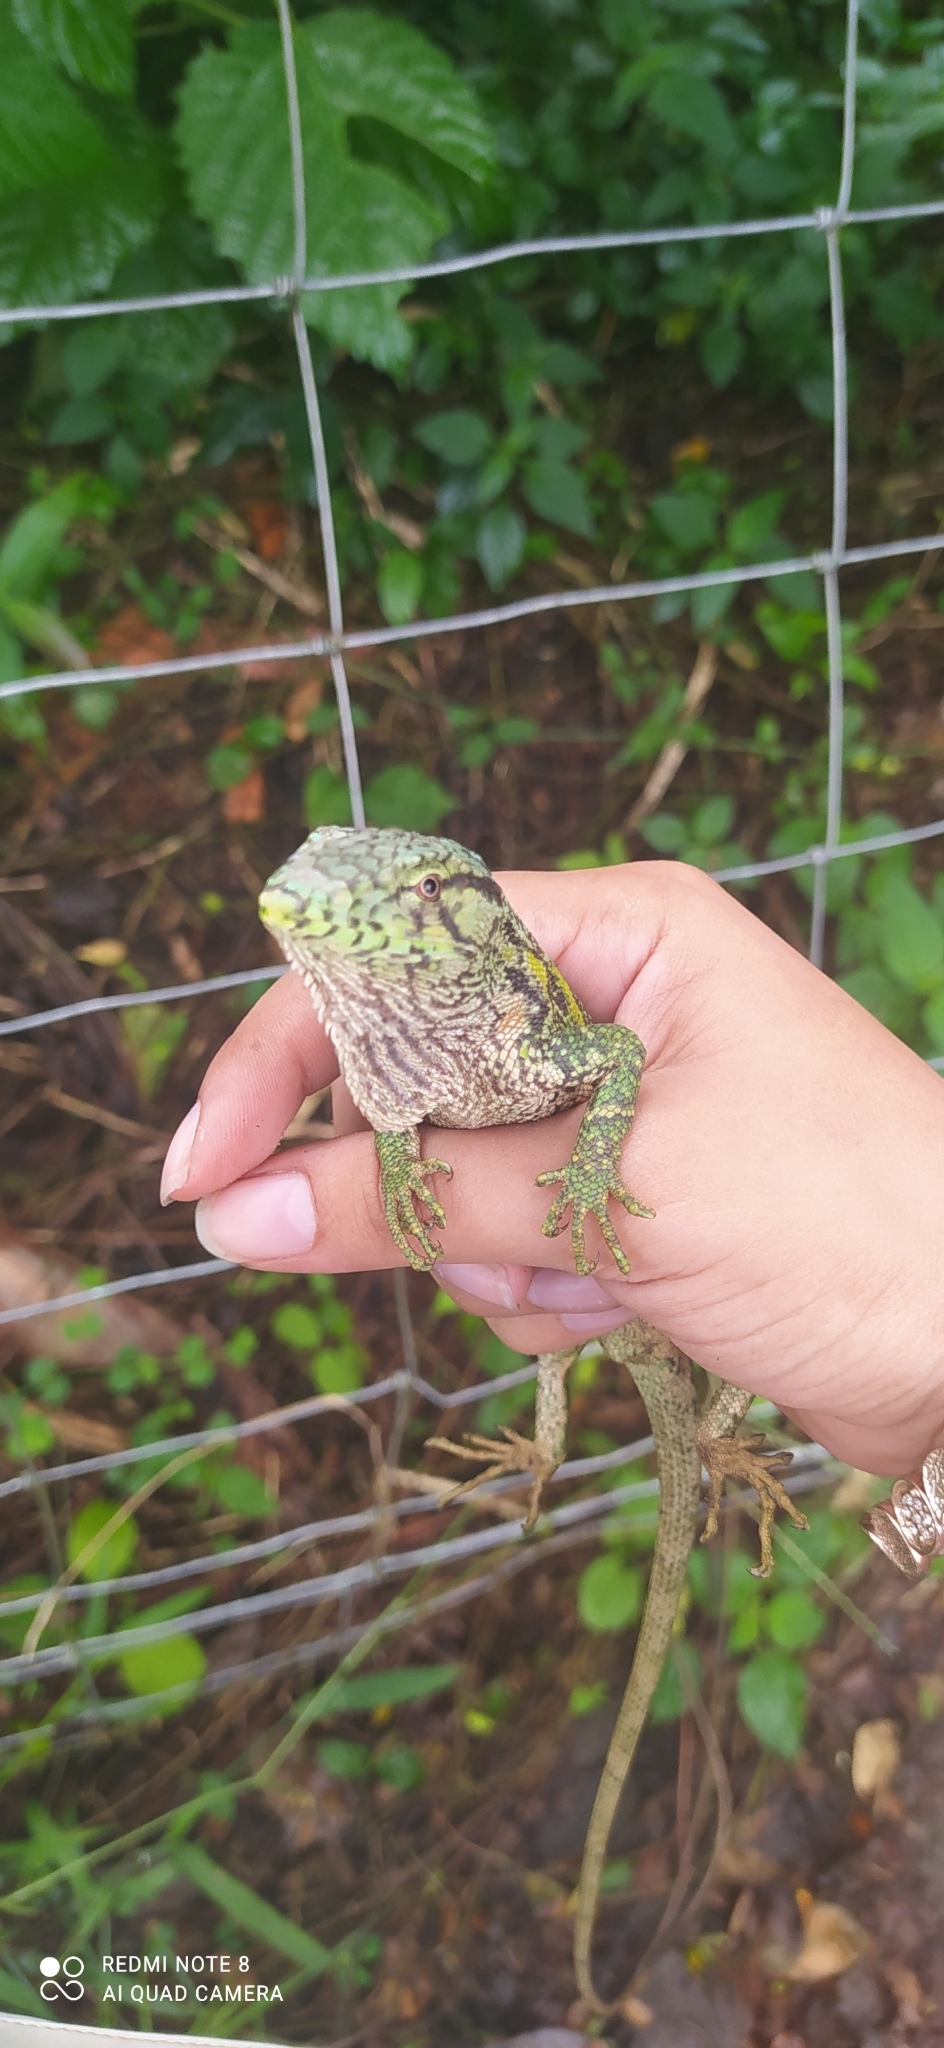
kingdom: Animalia
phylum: Chordata
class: Squamata
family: Polychrotidae
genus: Polychrus
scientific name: Polychrus marmoratus
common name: Many-colored bush anole
